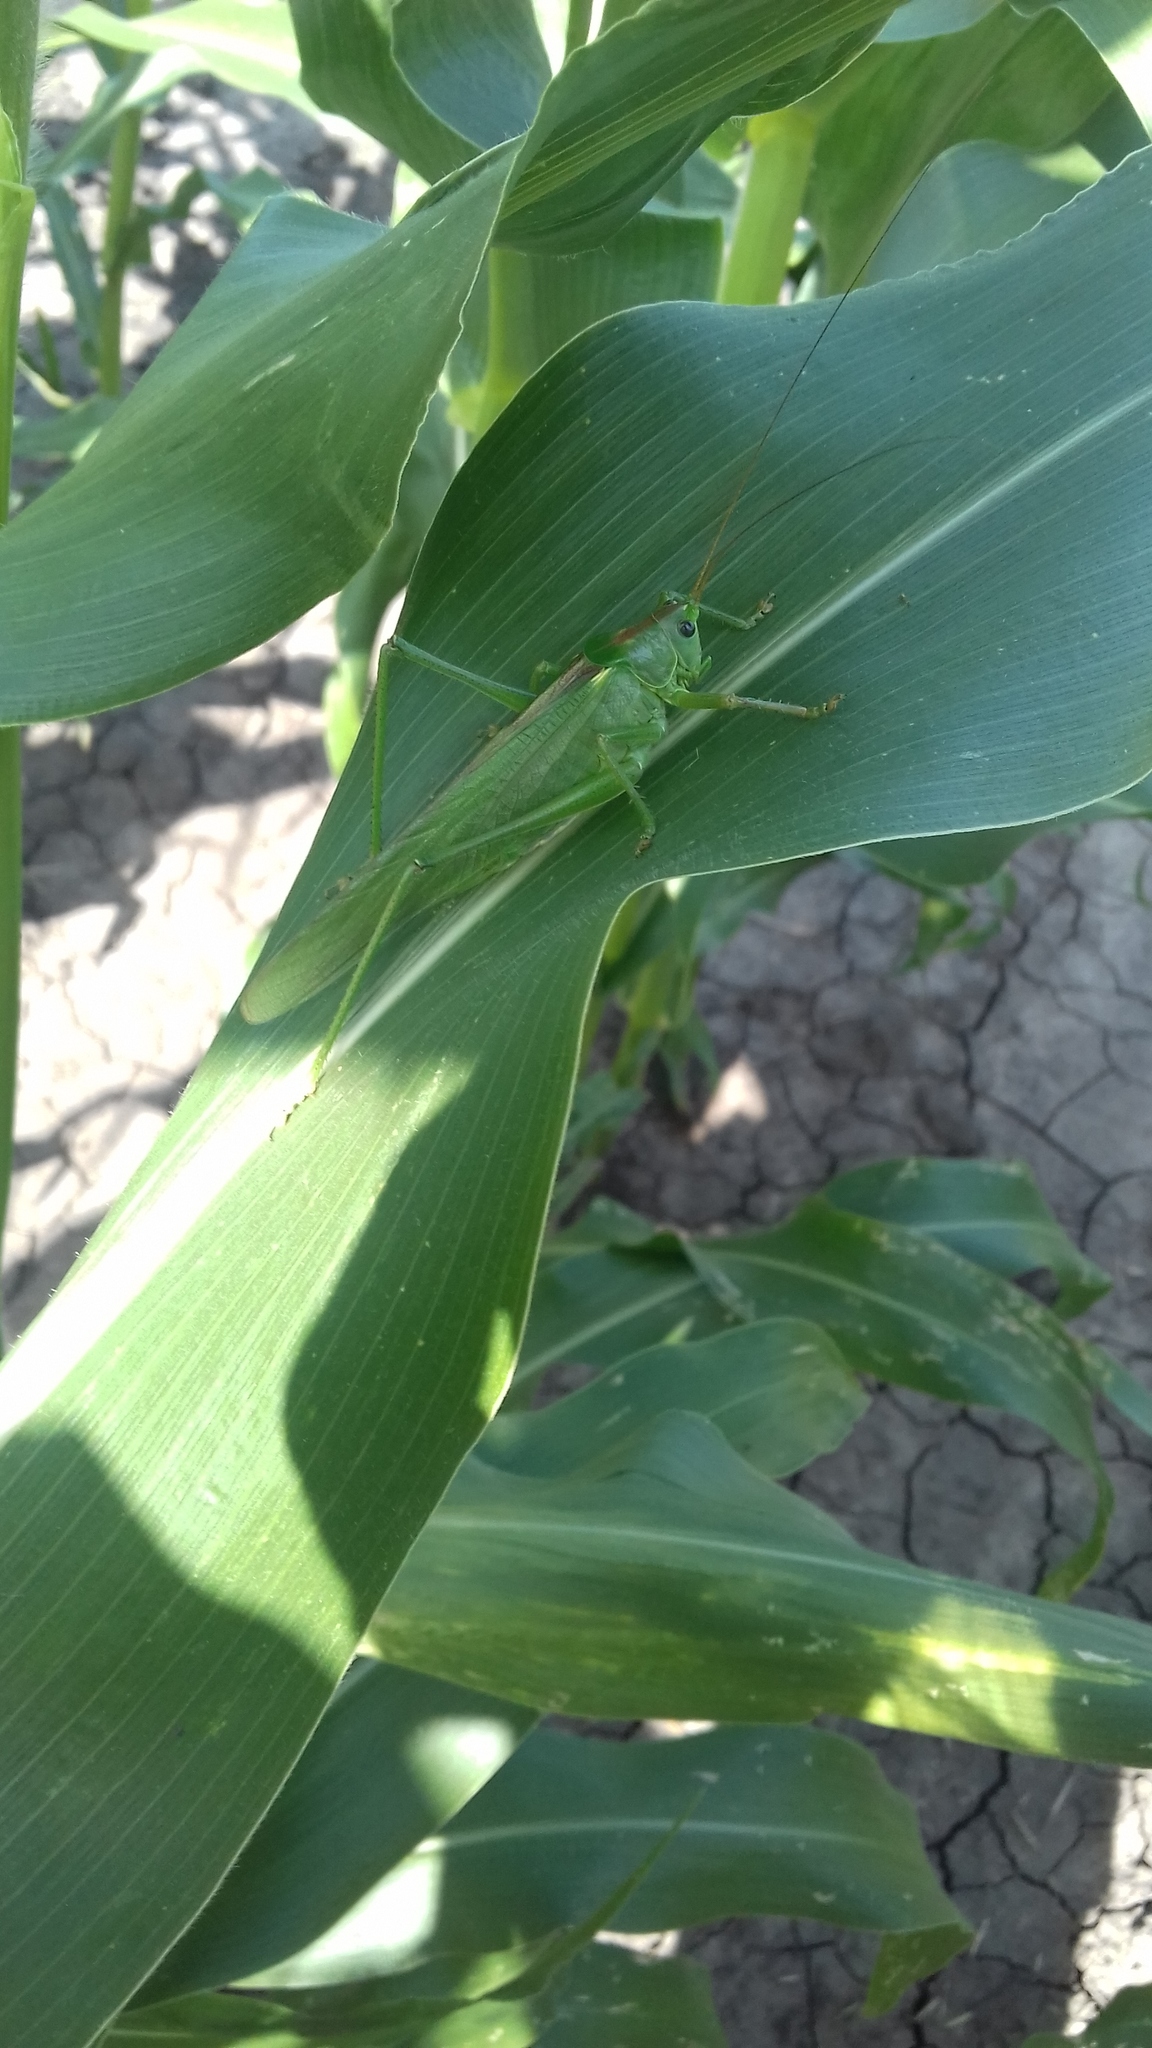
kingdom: Animalia
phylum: Arthropoda
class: Insecta
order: Orthoptera
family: Tettigoniidae
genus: Tettigonia
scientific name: Tettigonia viridissima
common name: Great green bush-cricket
